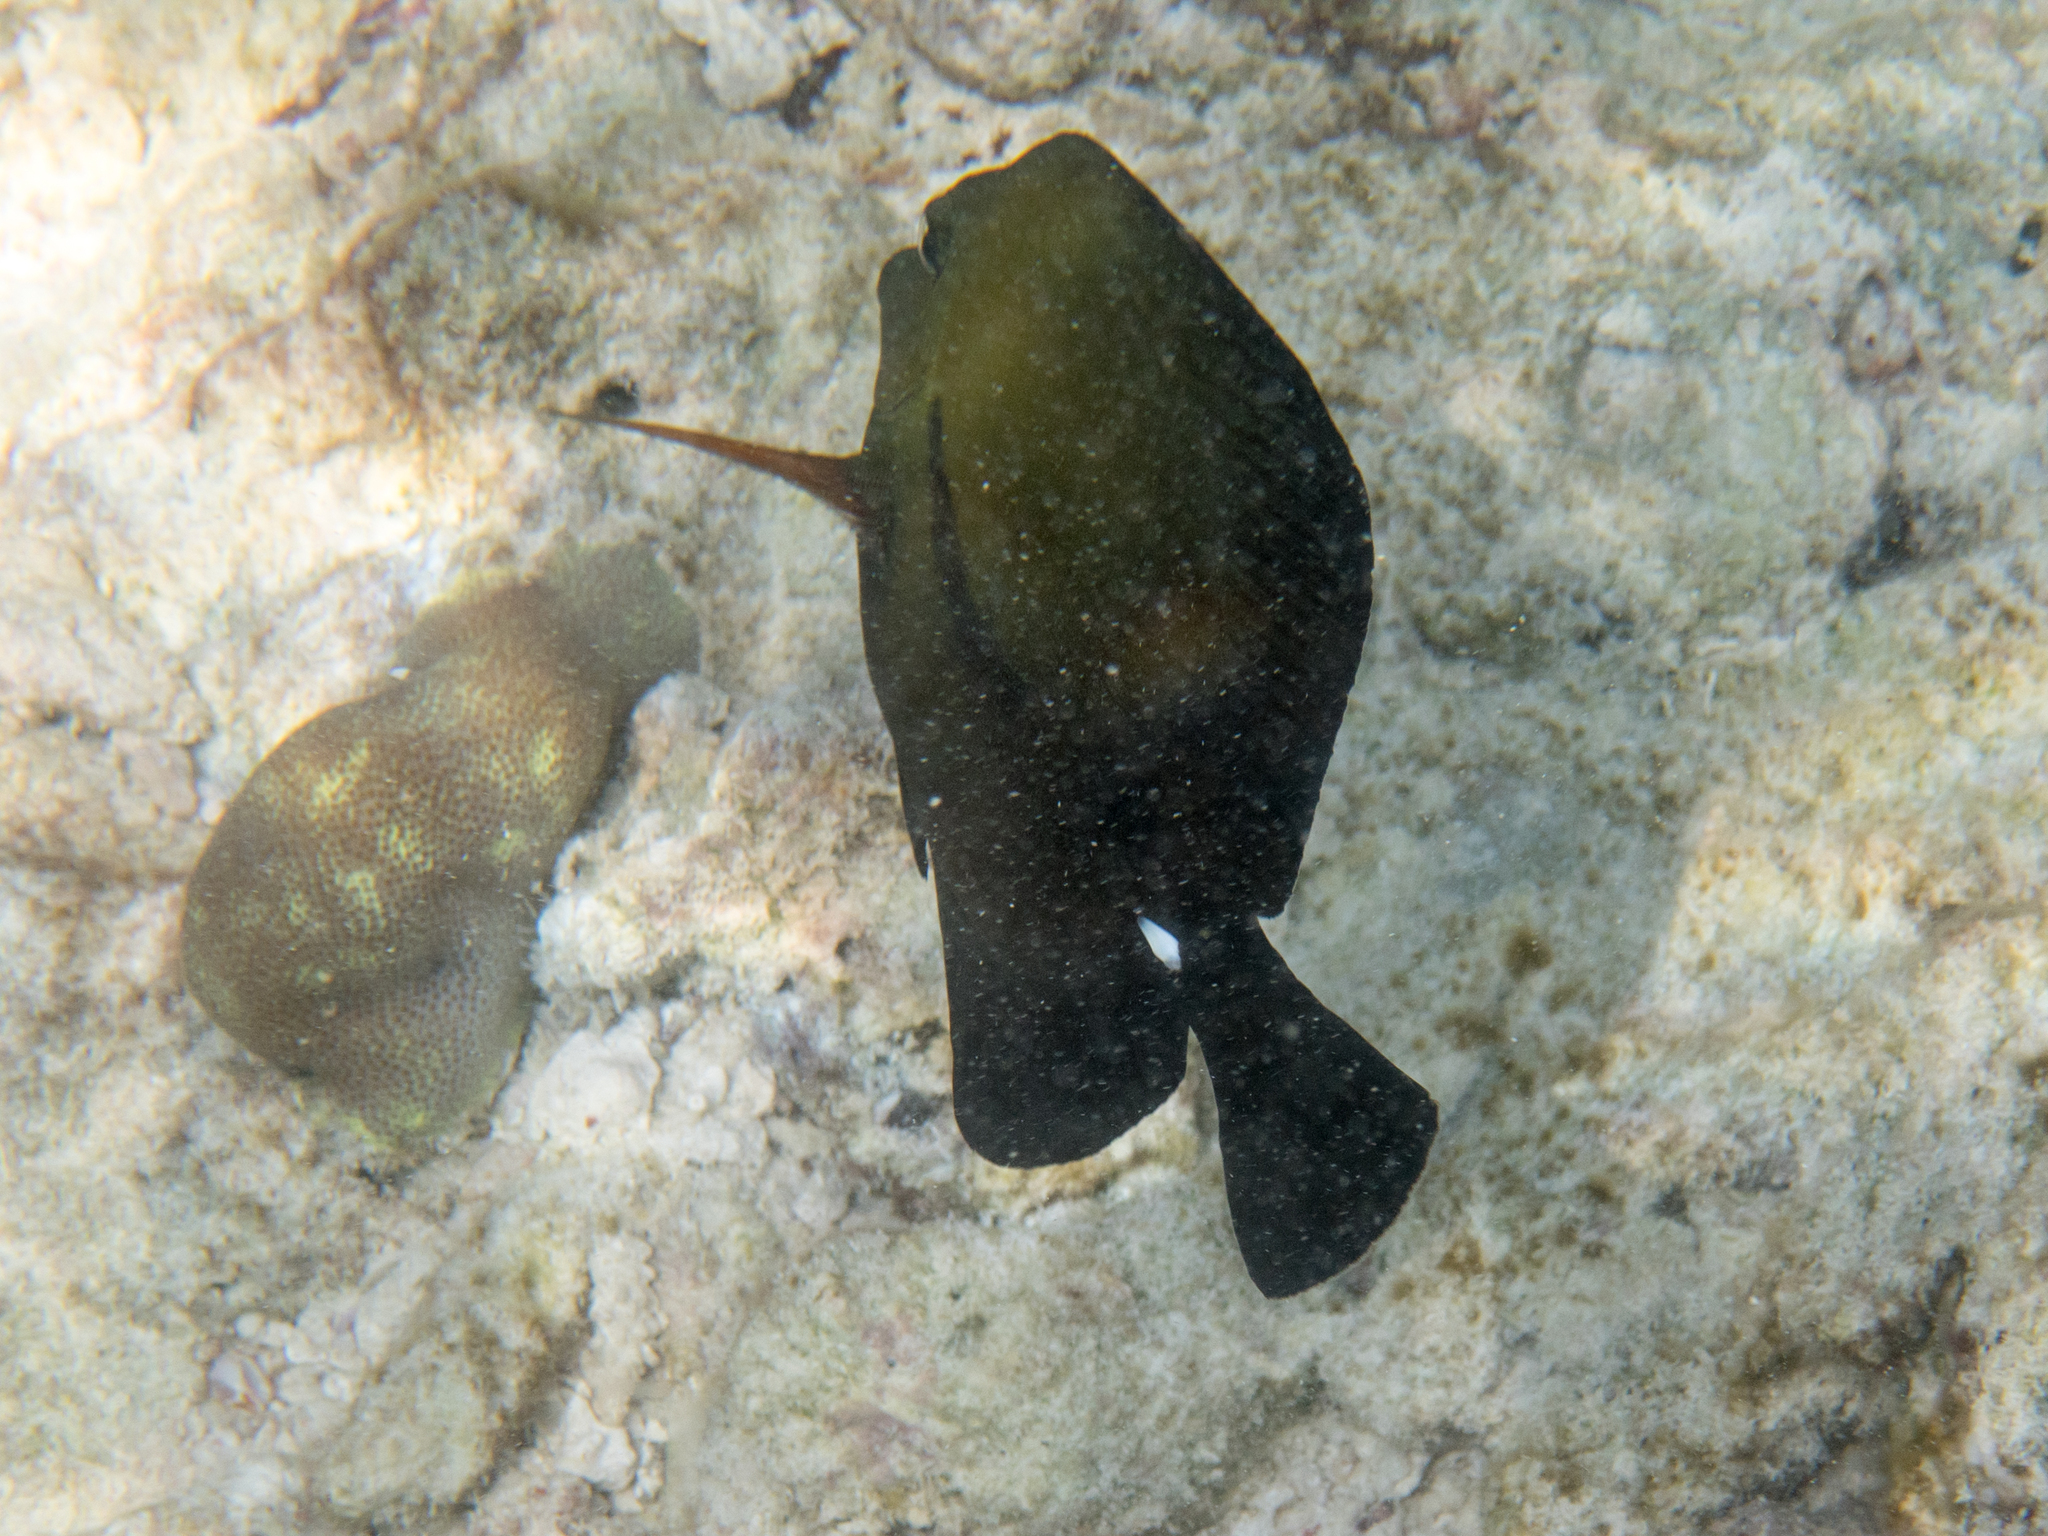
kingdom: Animalia
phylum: Chordata
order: Perciformes
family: Acanthuridae
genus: Zebrasoma
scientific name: Zebrasoma scopas
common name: Twotone tang
